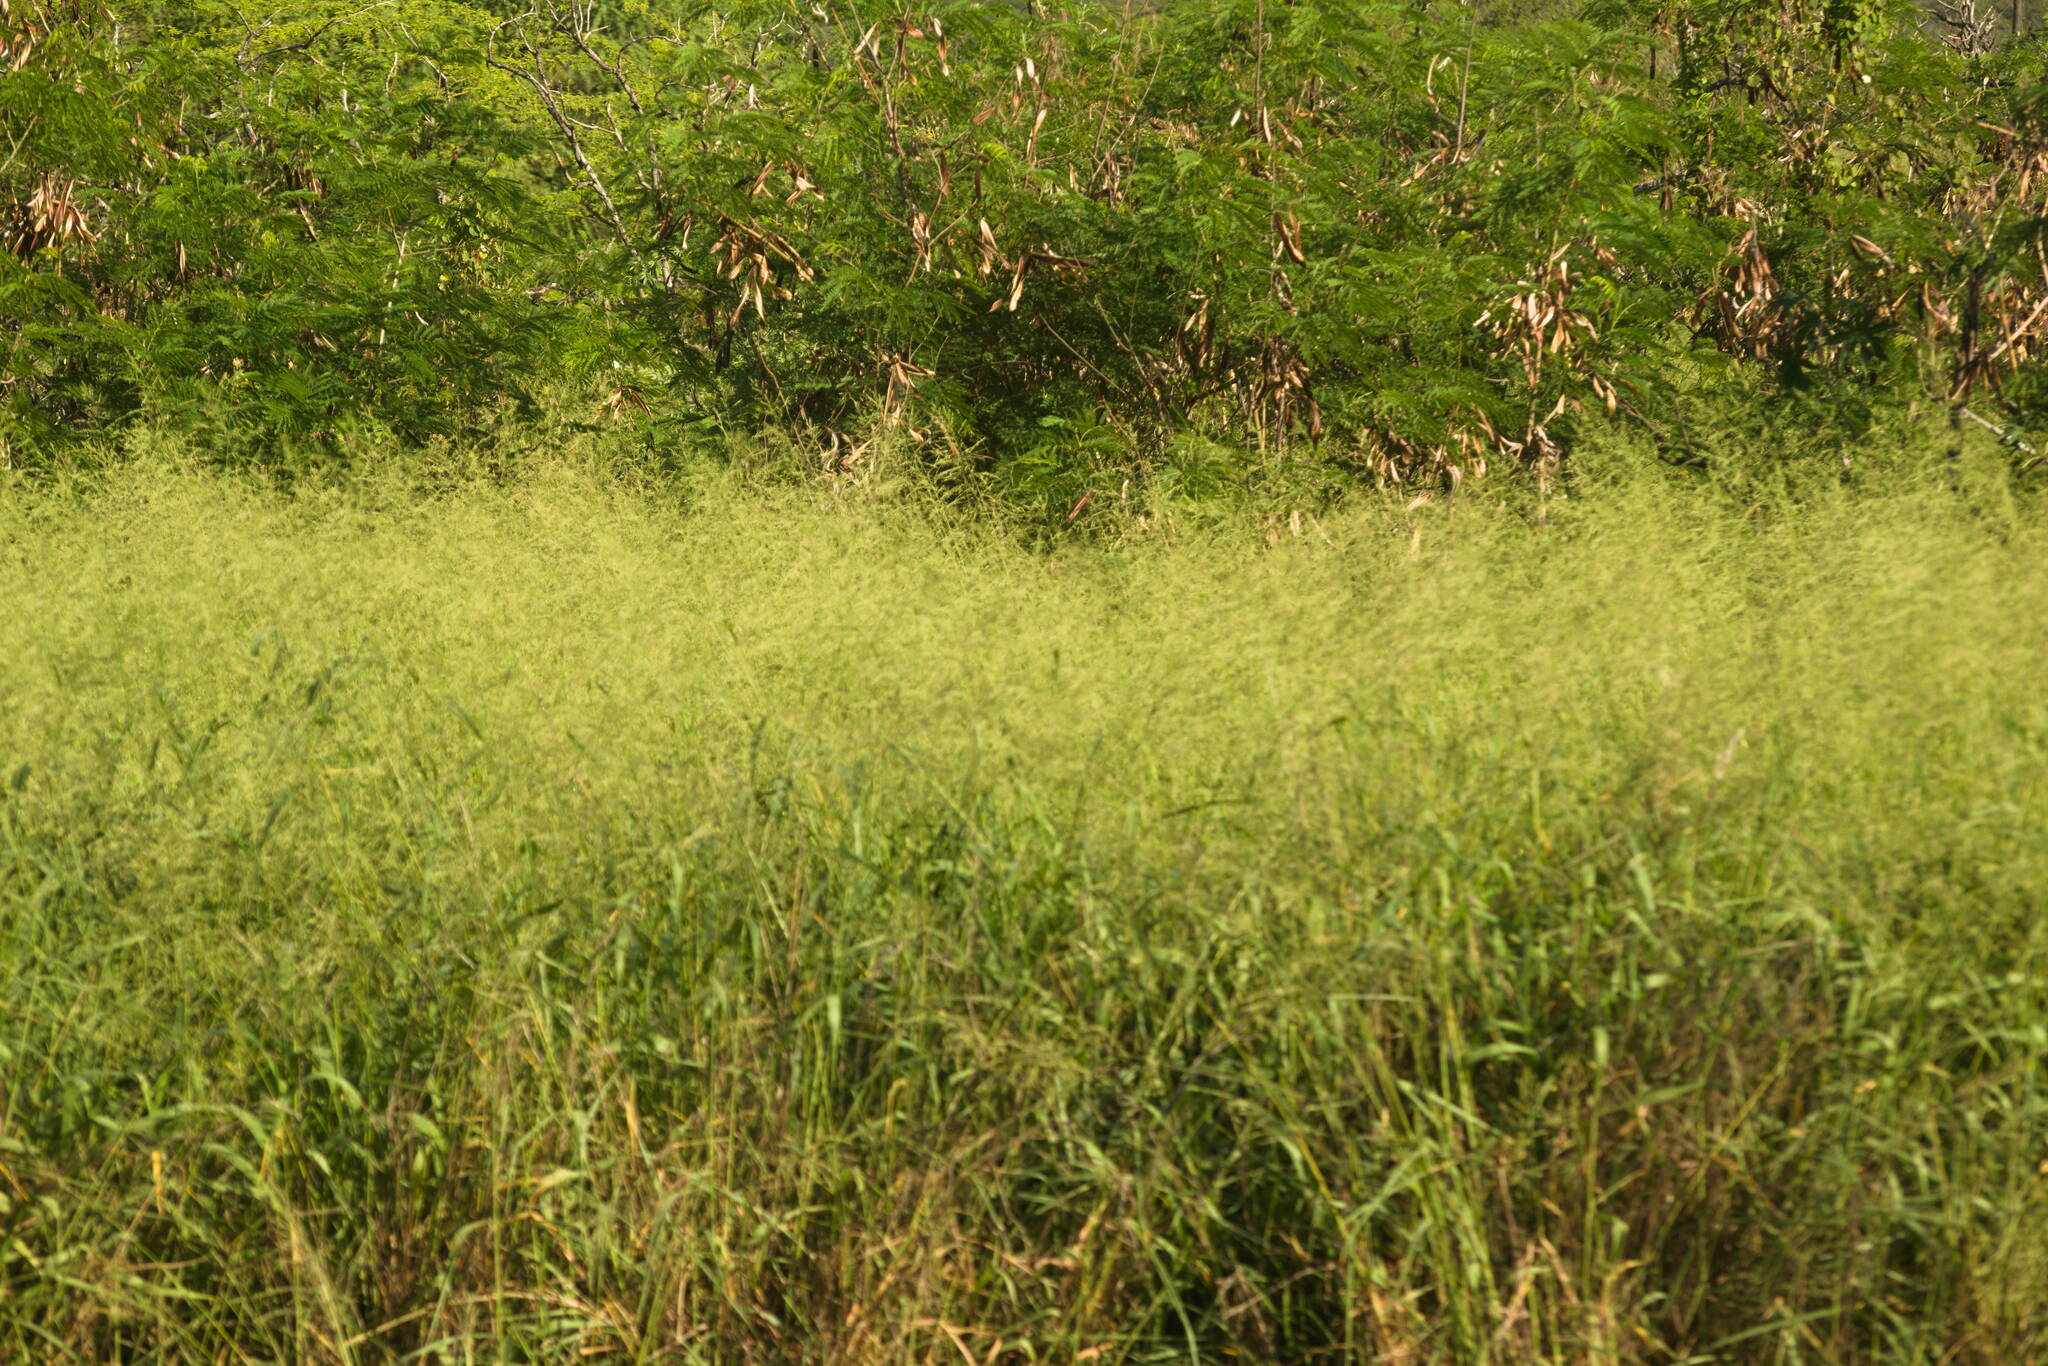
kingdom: Plantae
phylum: Tracheophyta
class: Liliopsida
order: Poales
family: Poaceae
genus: Megathyrsus
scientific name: Megathyrsus maximus
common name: Guineagrass
